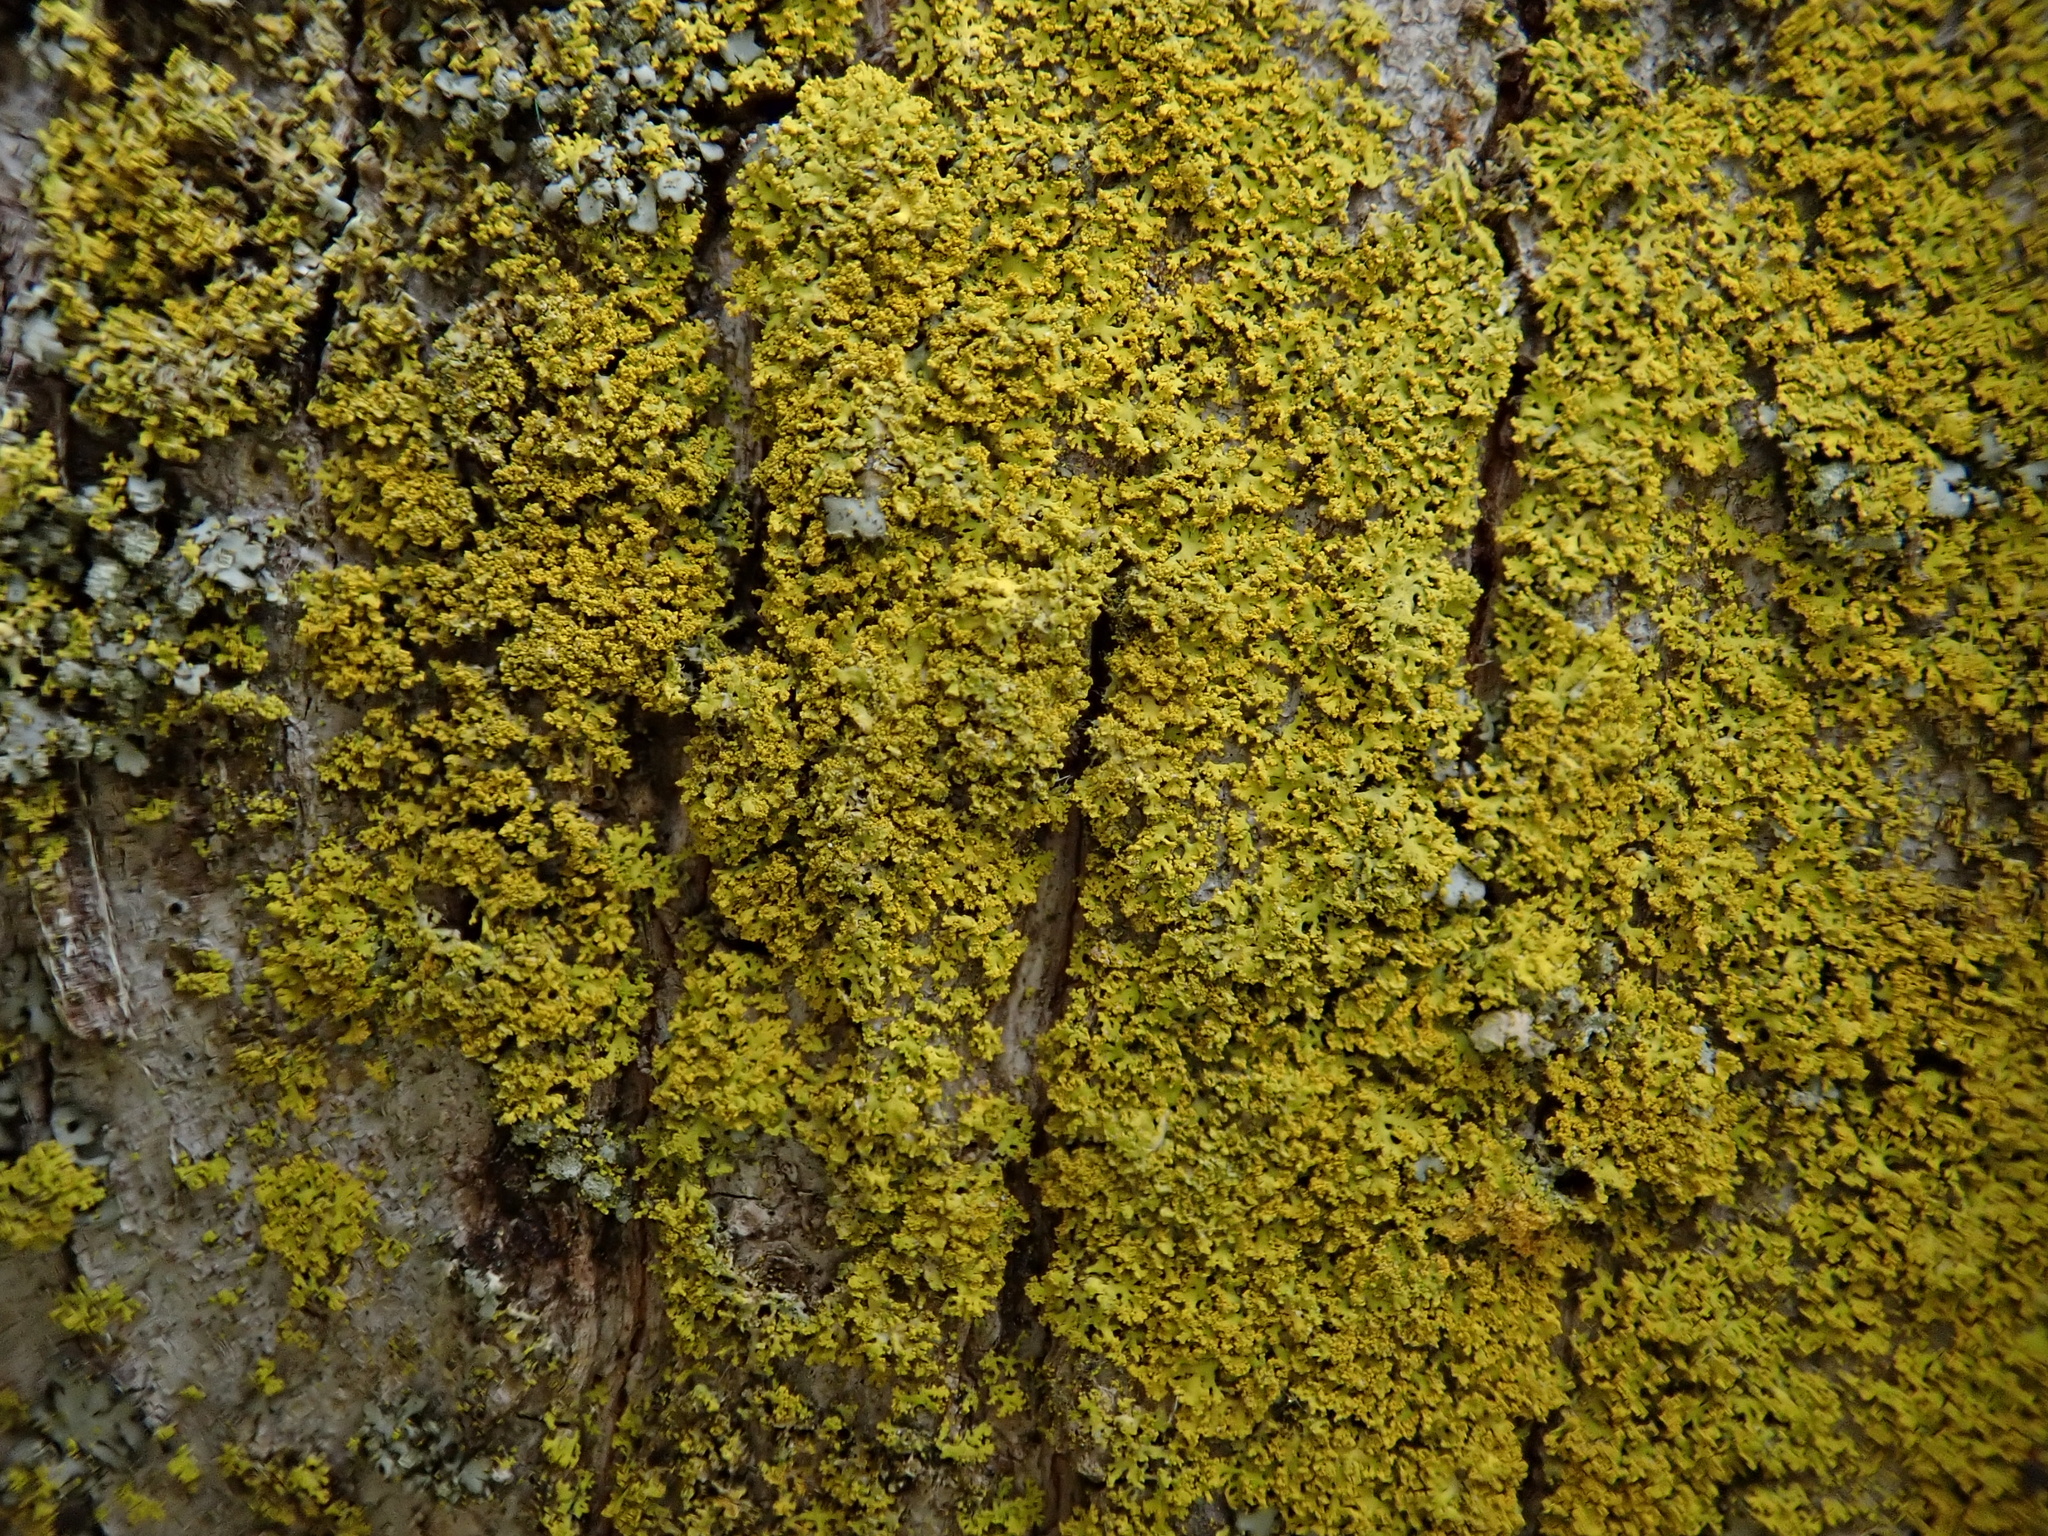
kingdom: Fungi
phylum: Ascomycota
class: Candelariomycetes
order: Candelariales
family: Candelariaceae
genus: Candelaria
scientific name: Candelaria concolor
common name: Candleflame lichen
